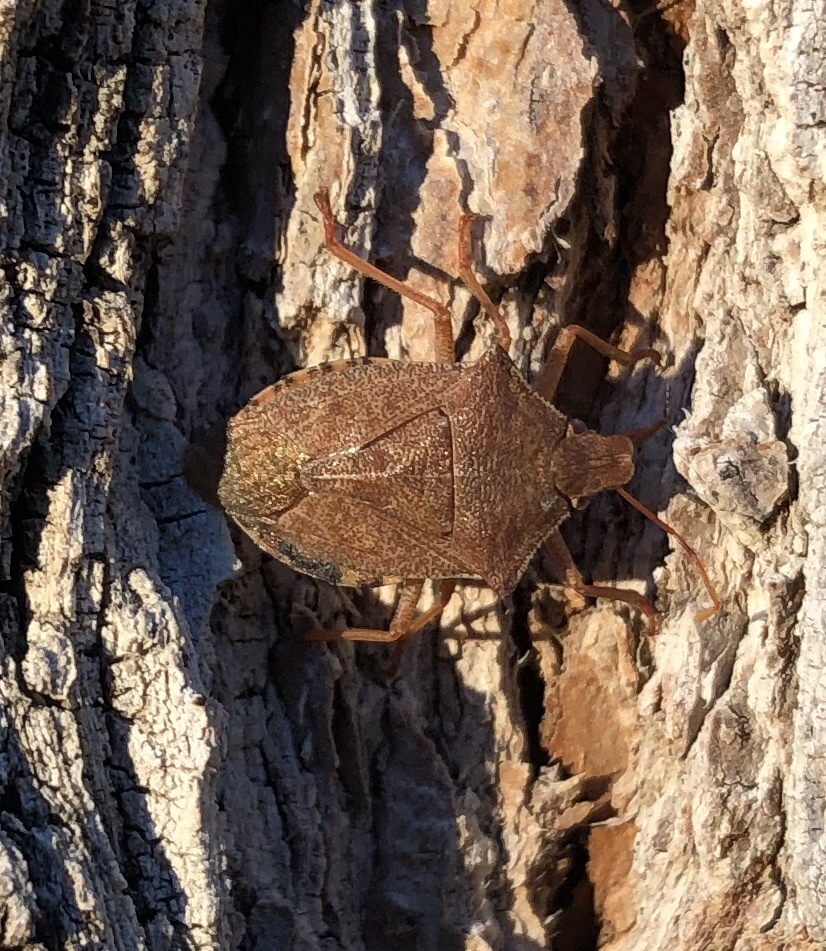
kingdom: Animalia
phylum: Arthropoda
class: Insecta
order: Hemiptera
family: Pentatomidae
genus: Arma
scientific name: Arma custos
